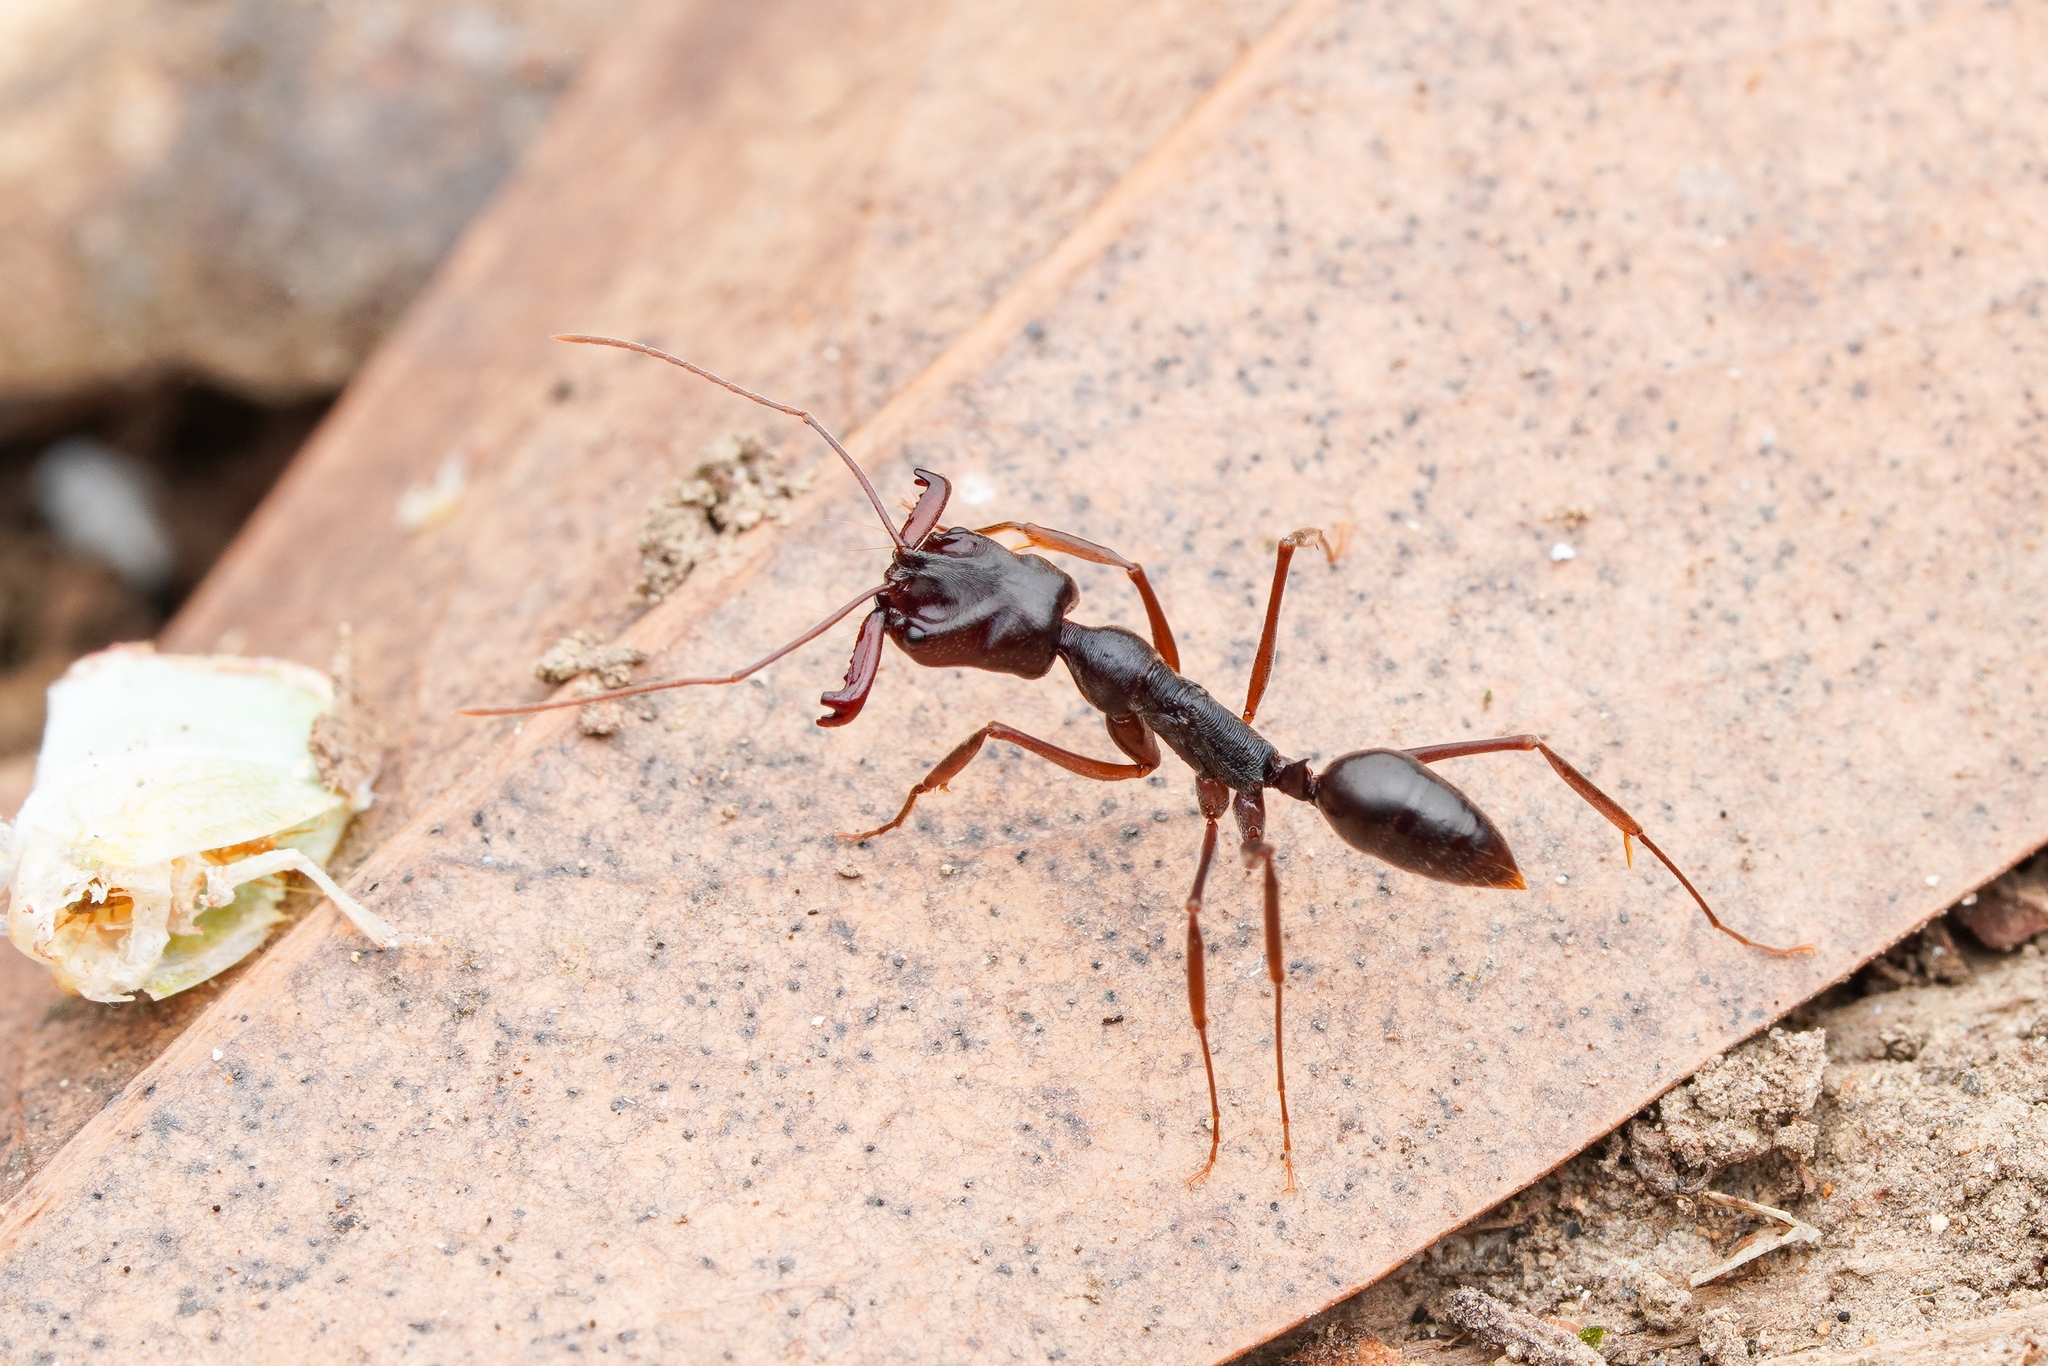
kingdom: Animalia
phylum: Arthropoda
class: Insecta
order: Hymenoptera
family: Formicidae
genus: Formica
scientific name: Formica hayashi
